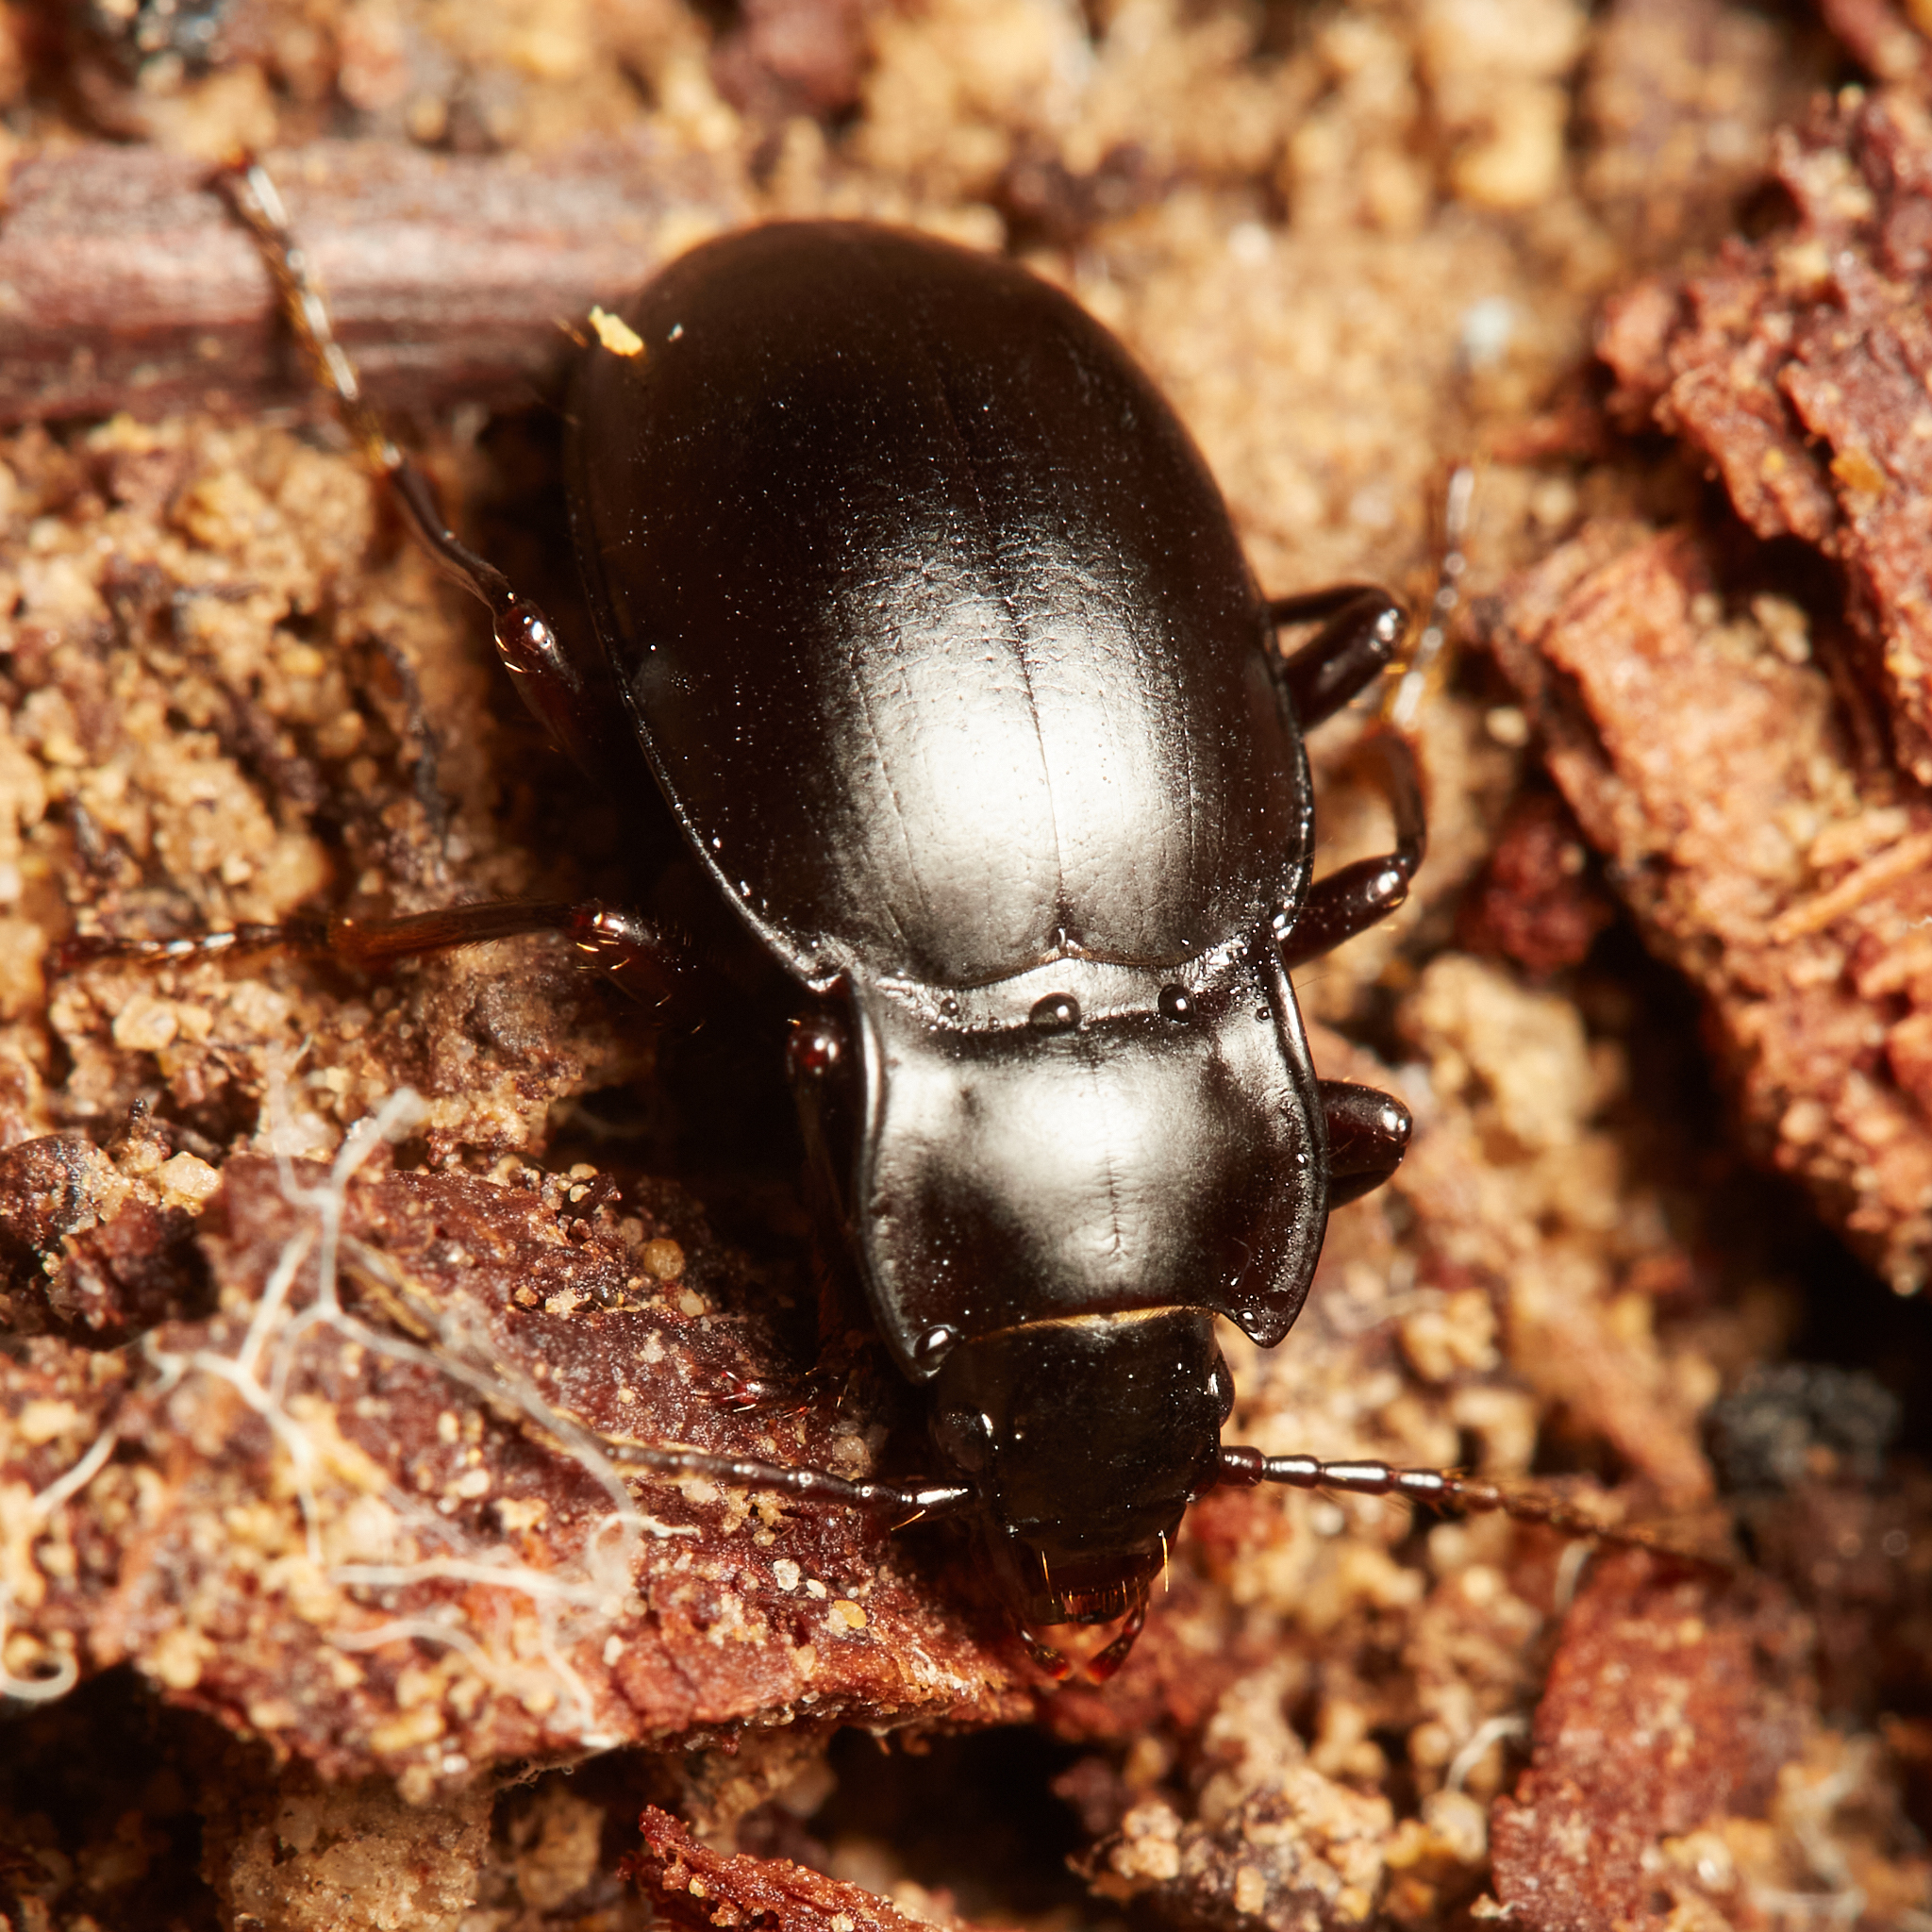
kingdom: Animalia
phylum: Arthropoda
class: Insecta
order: Coleoptera
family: Carabidae
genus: Metrius
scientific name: Metrius contractus
